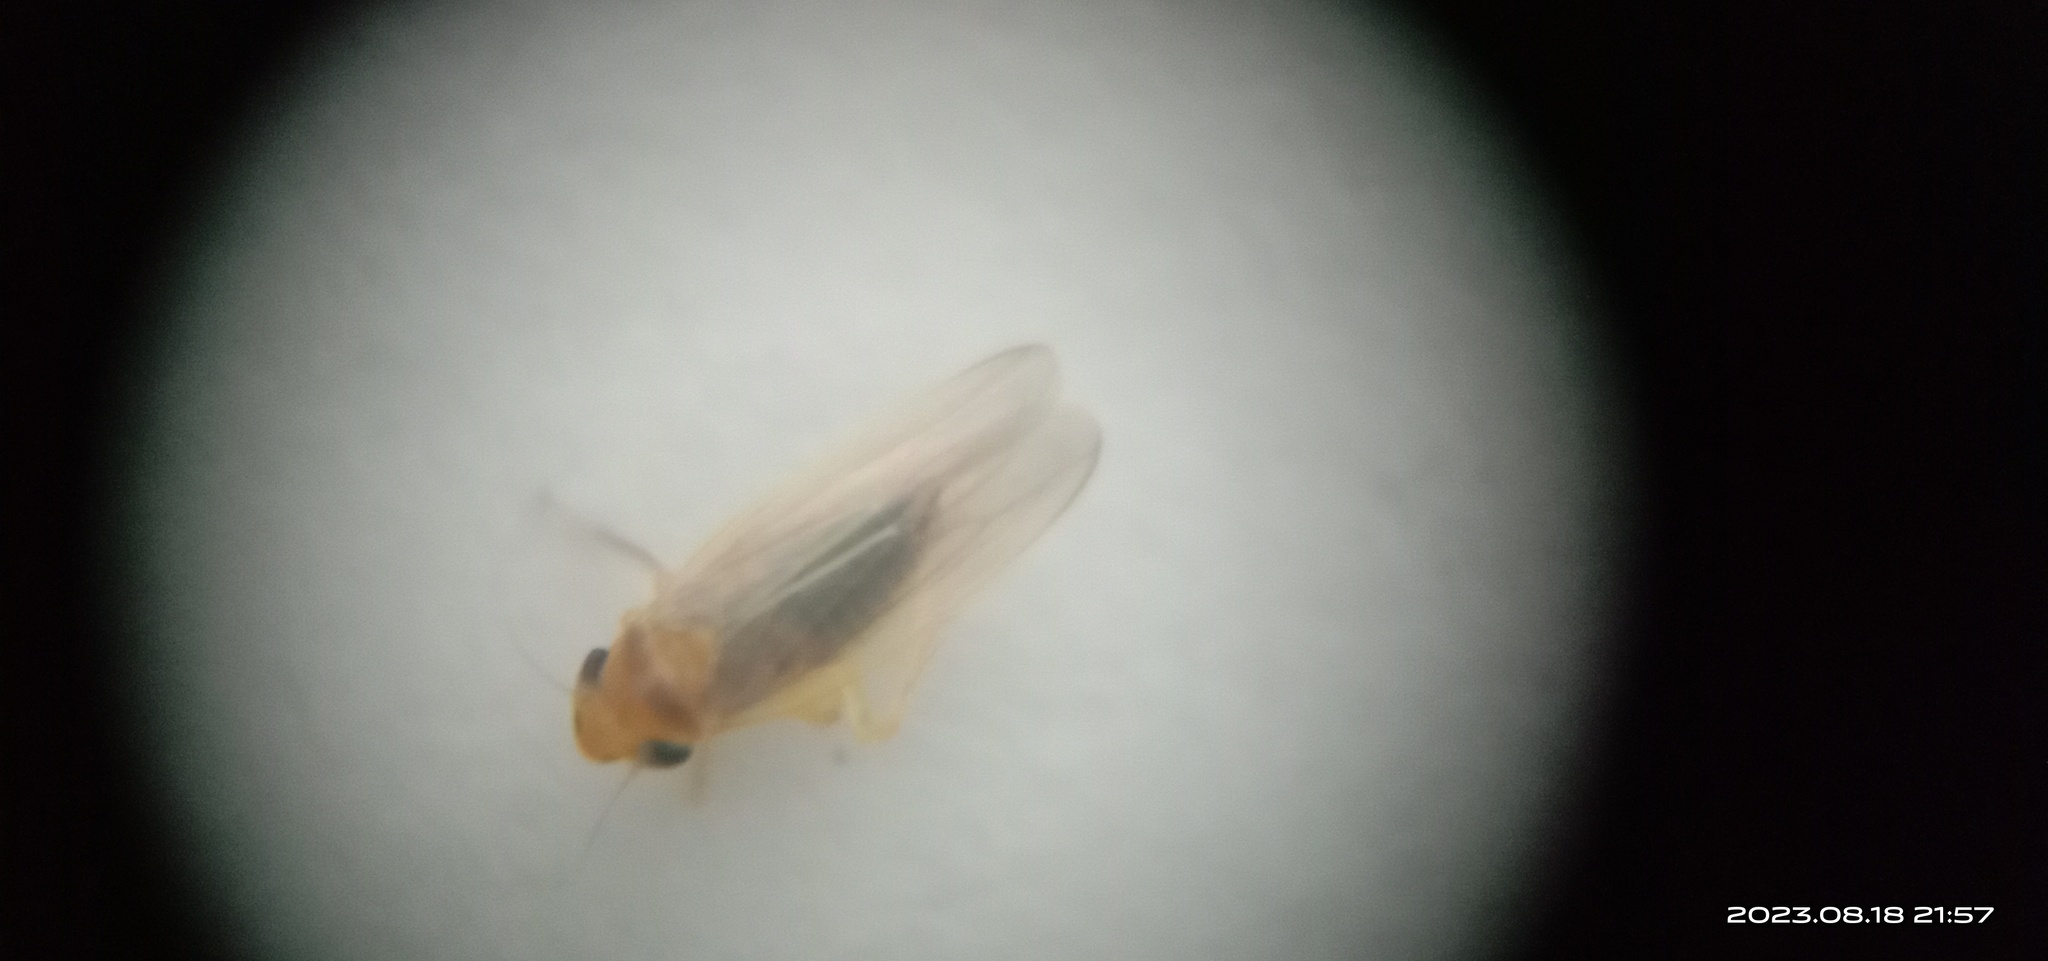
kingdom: Animalia
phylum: Arthropoda
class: Insecta
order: Hemiptera
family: Cicadellidae
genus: Alebroides
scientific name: Alebroides marginatus
